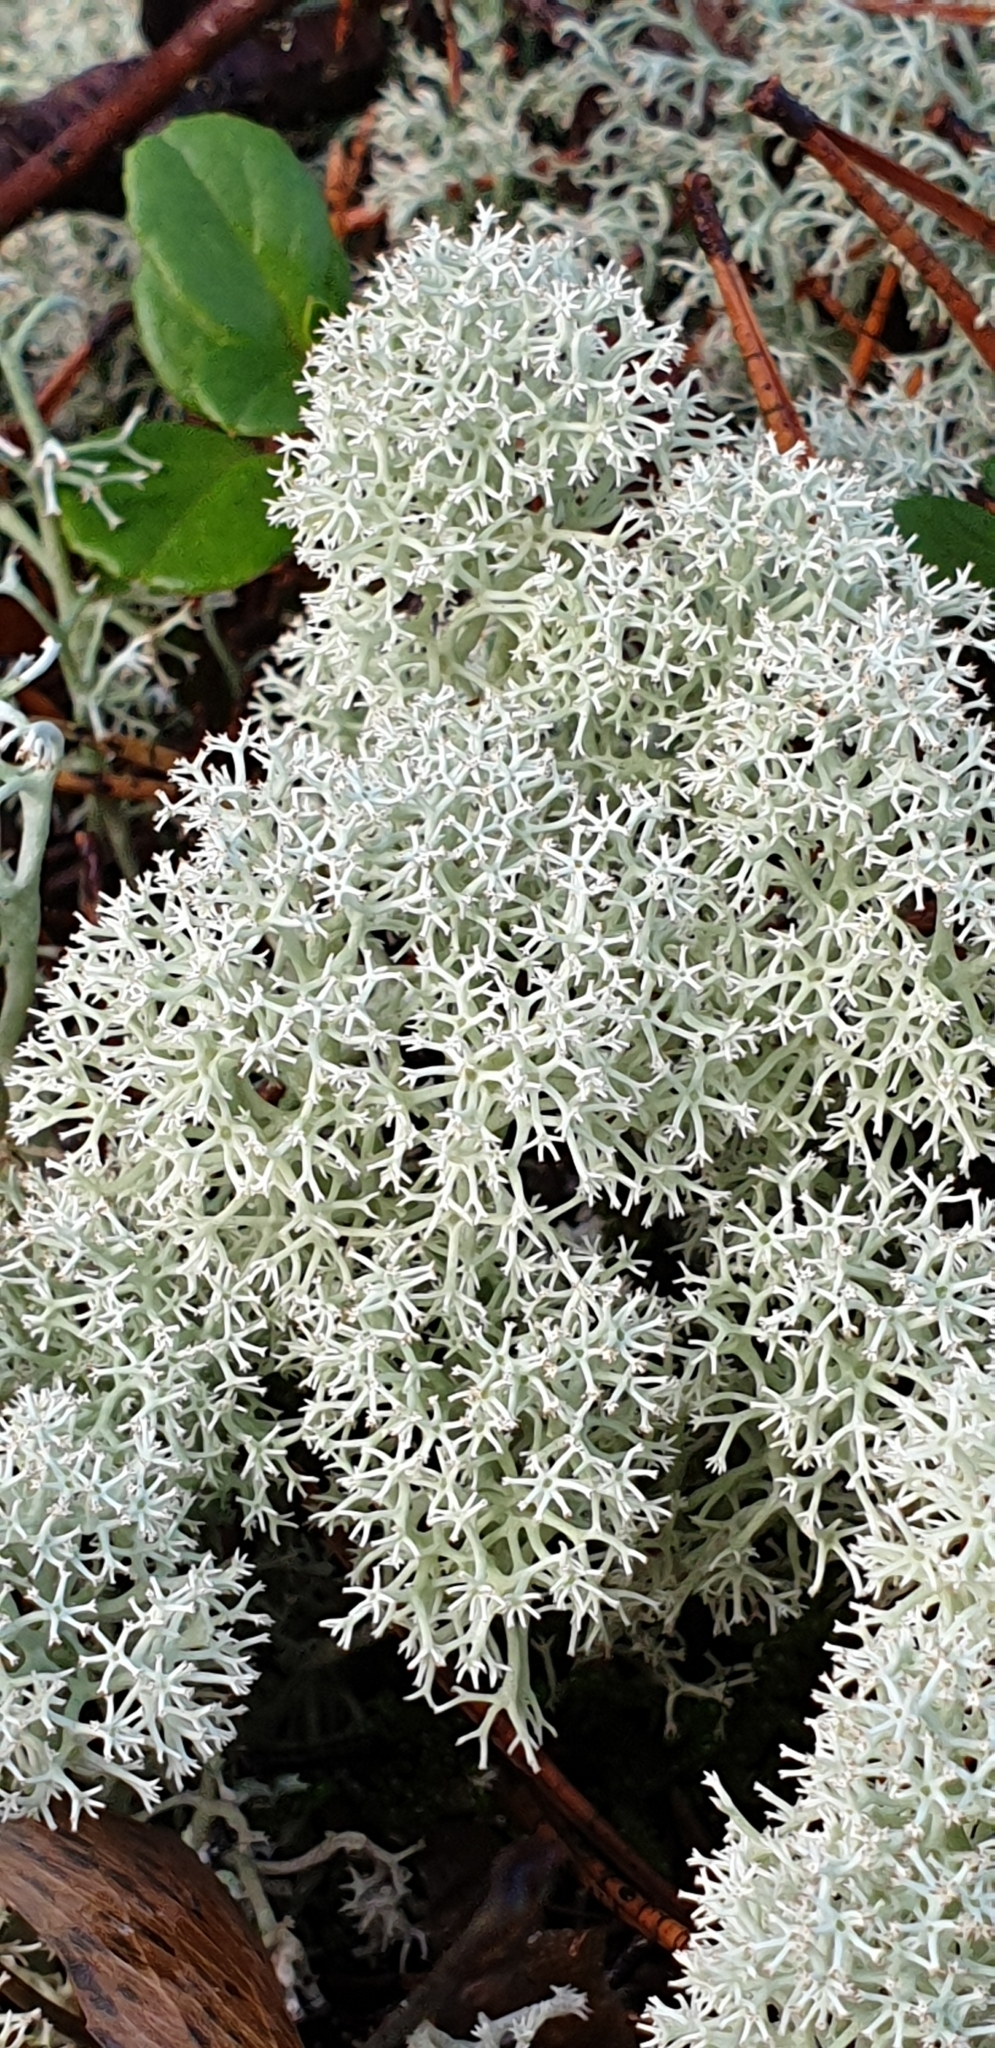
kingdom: Fungi
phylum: Ascomycota
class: Lecanoromycetes
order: Lecanorales
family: Cladoniaceae
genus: Cladonia
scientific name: Cladonia stellaris
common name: Star-tipped reindeer lichen
